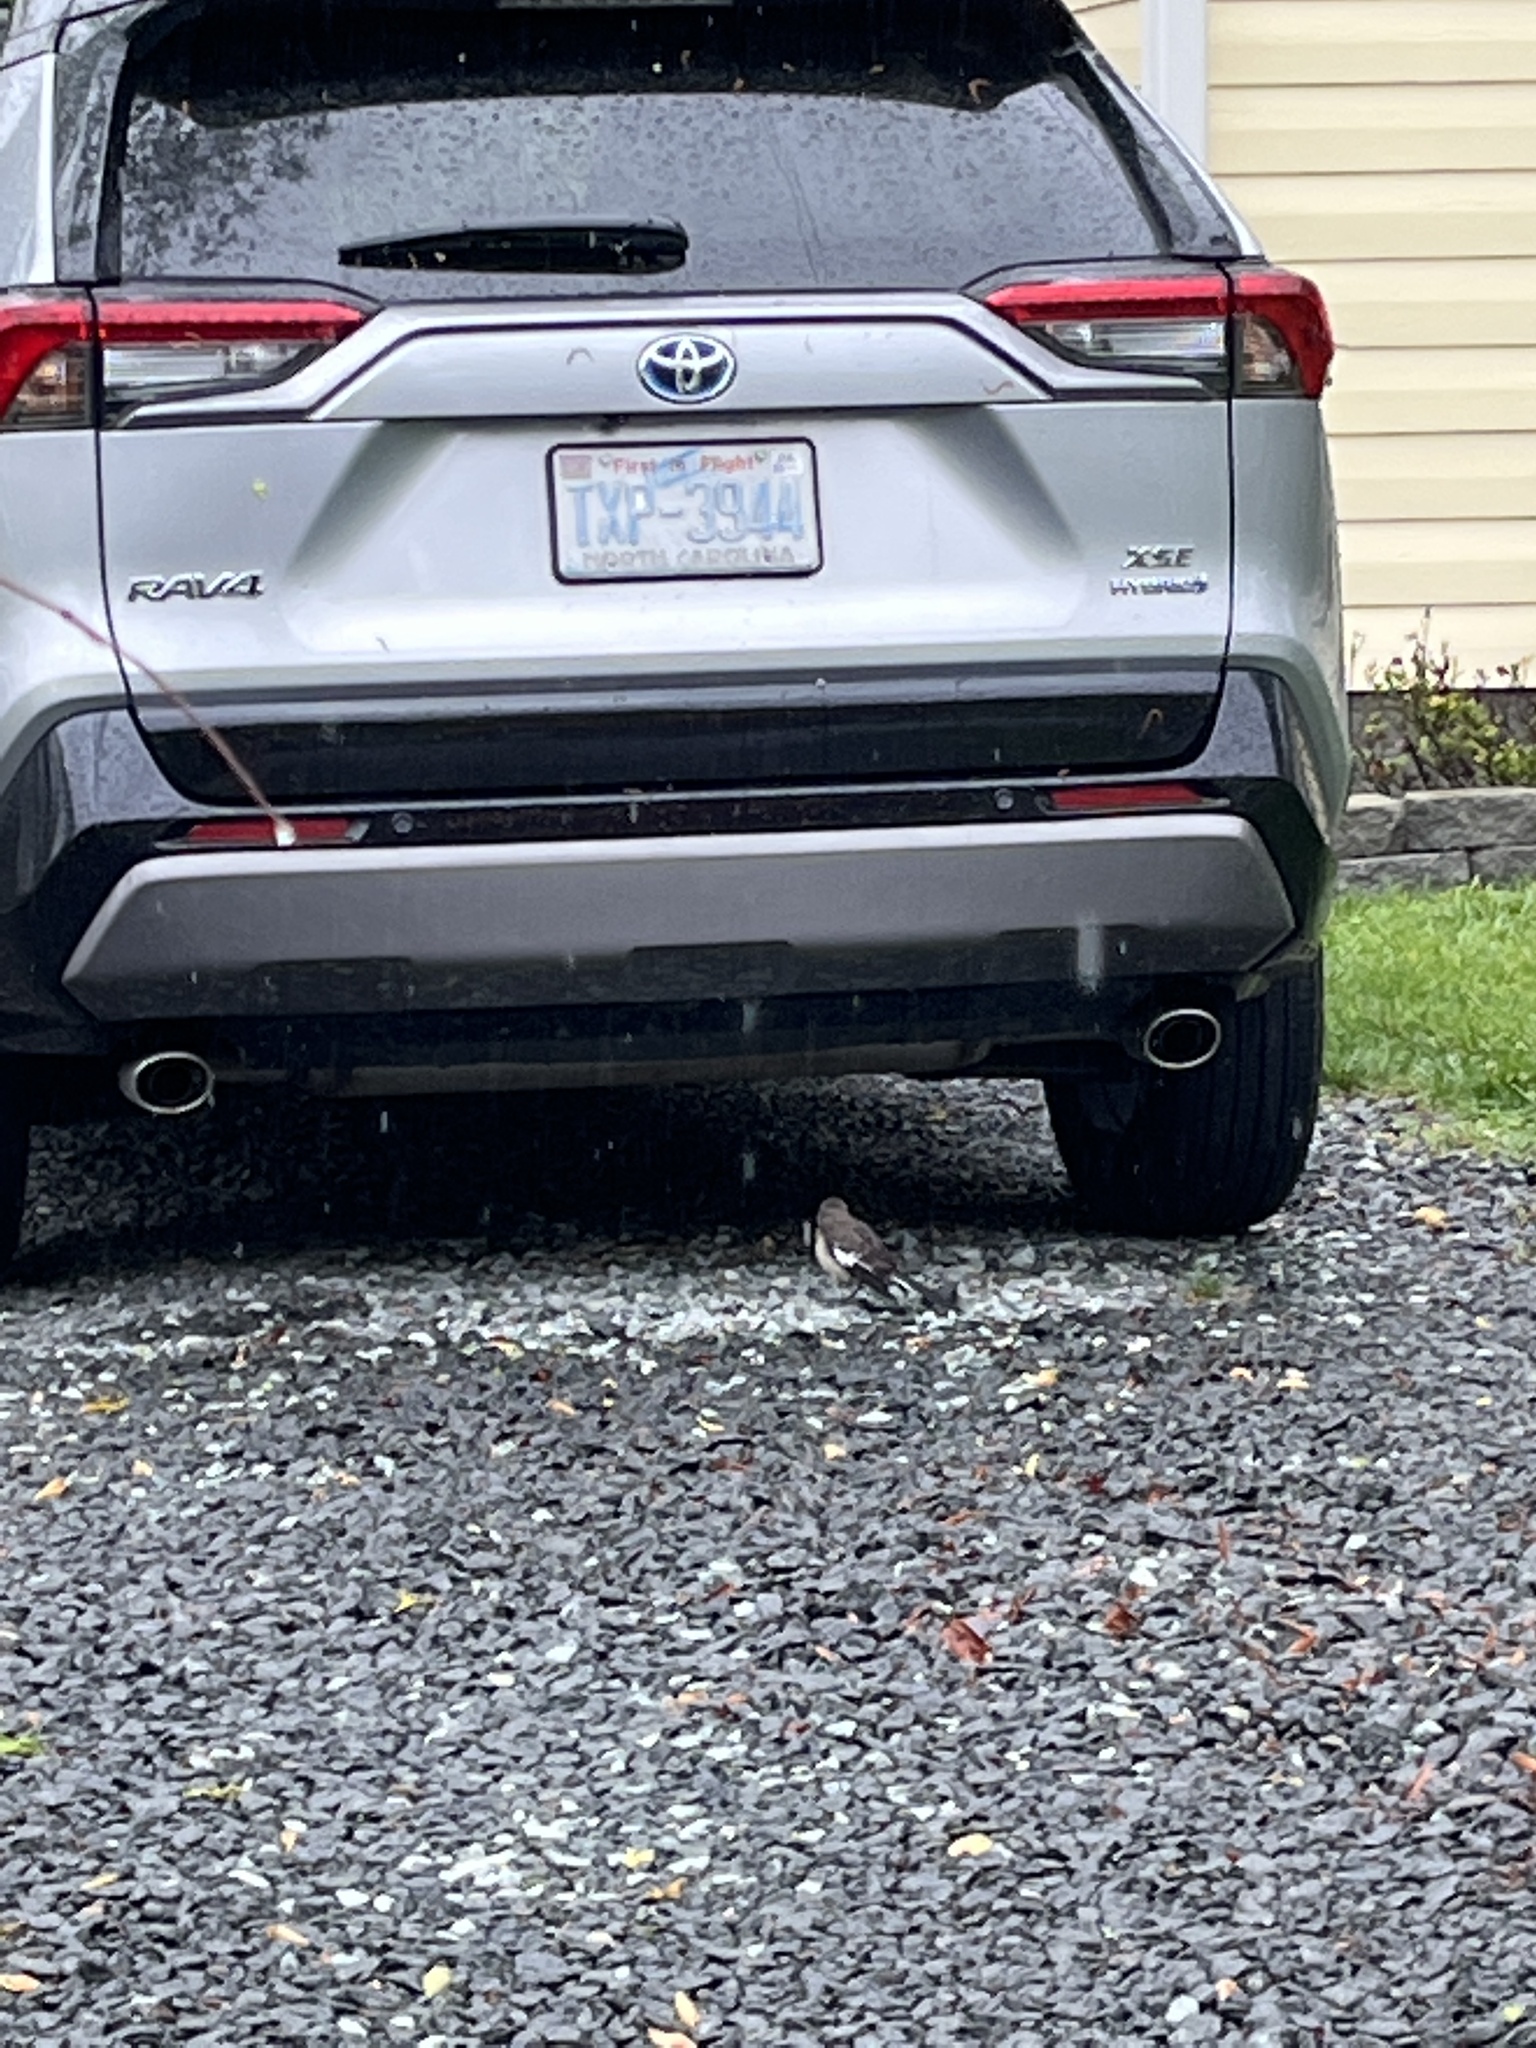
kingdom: Animalia
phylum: Chordata
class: Aves
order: Passeriformes
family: Mimidae
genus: Mimus
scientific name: Mimus polyglottos
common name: Northern mockingbird
